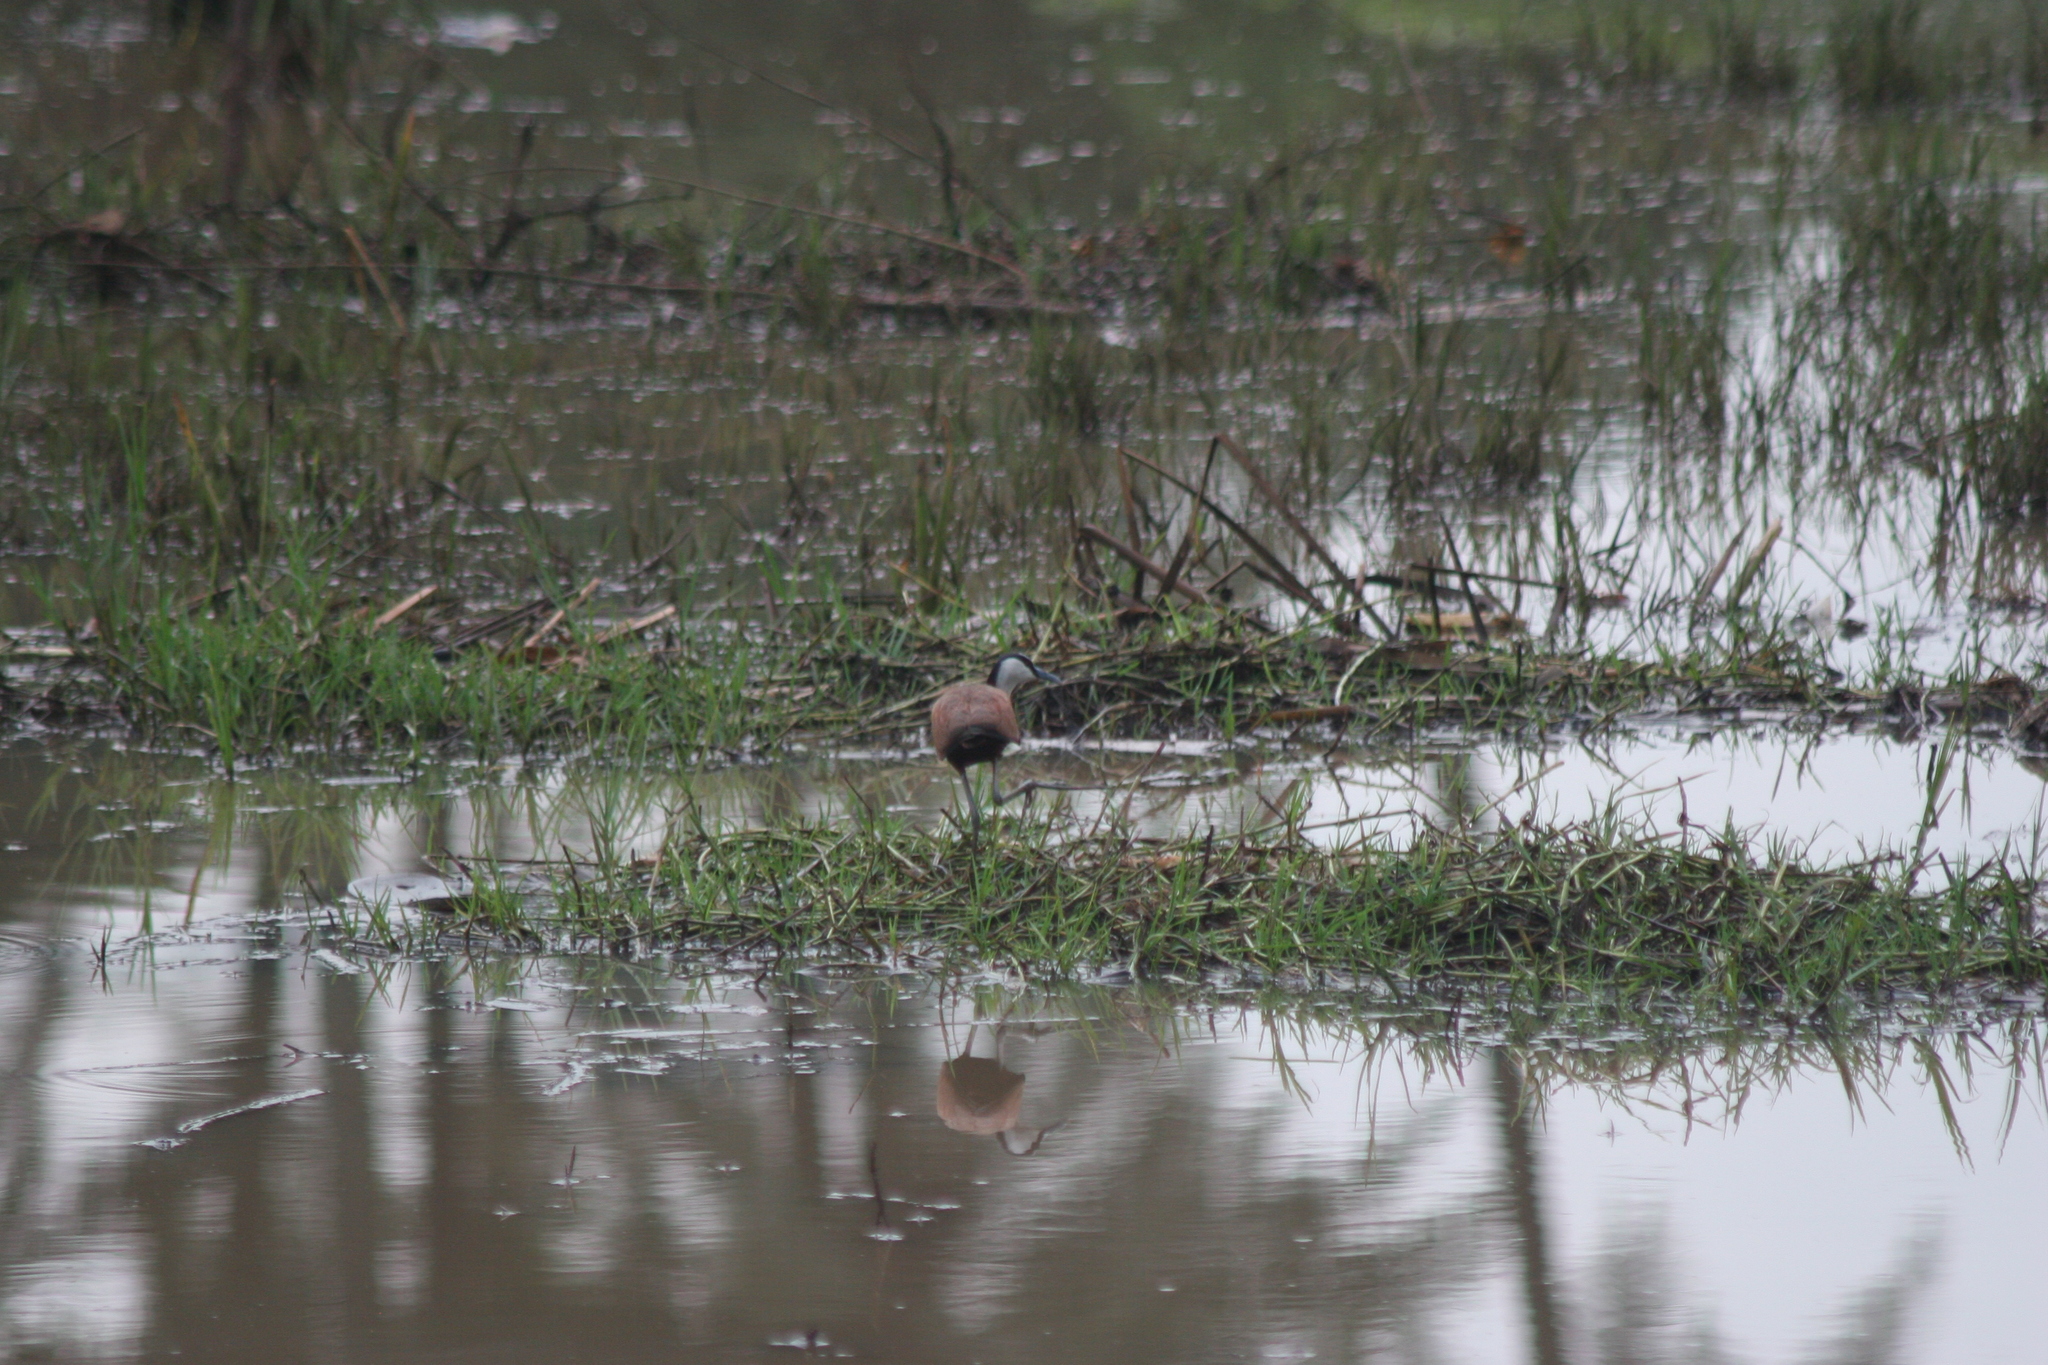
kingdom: Animalia
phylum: Chordata
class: Aves
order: Charadriiformes
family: Jacanidae
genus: Actophilornis
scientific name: Actophilornis africanus
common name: African jacana
